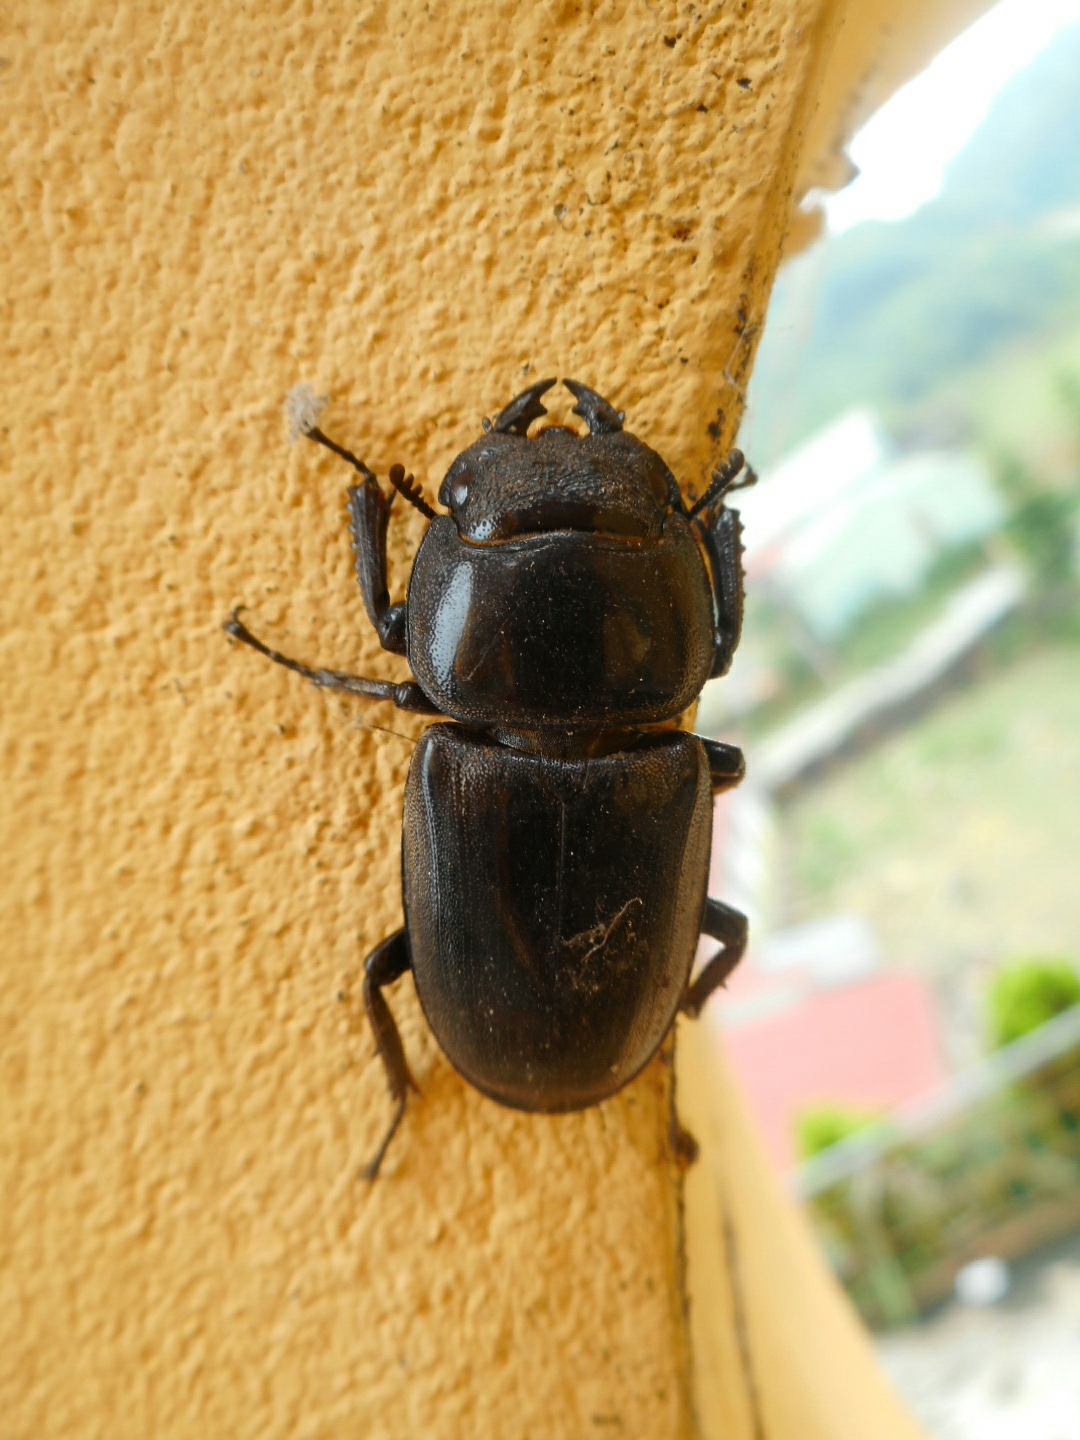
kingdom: Animalia
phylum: Arthropoda
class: Insecta
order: Coleoptera
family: Lucanidae
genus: Serrognathus
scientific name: Serrognathus titanus
